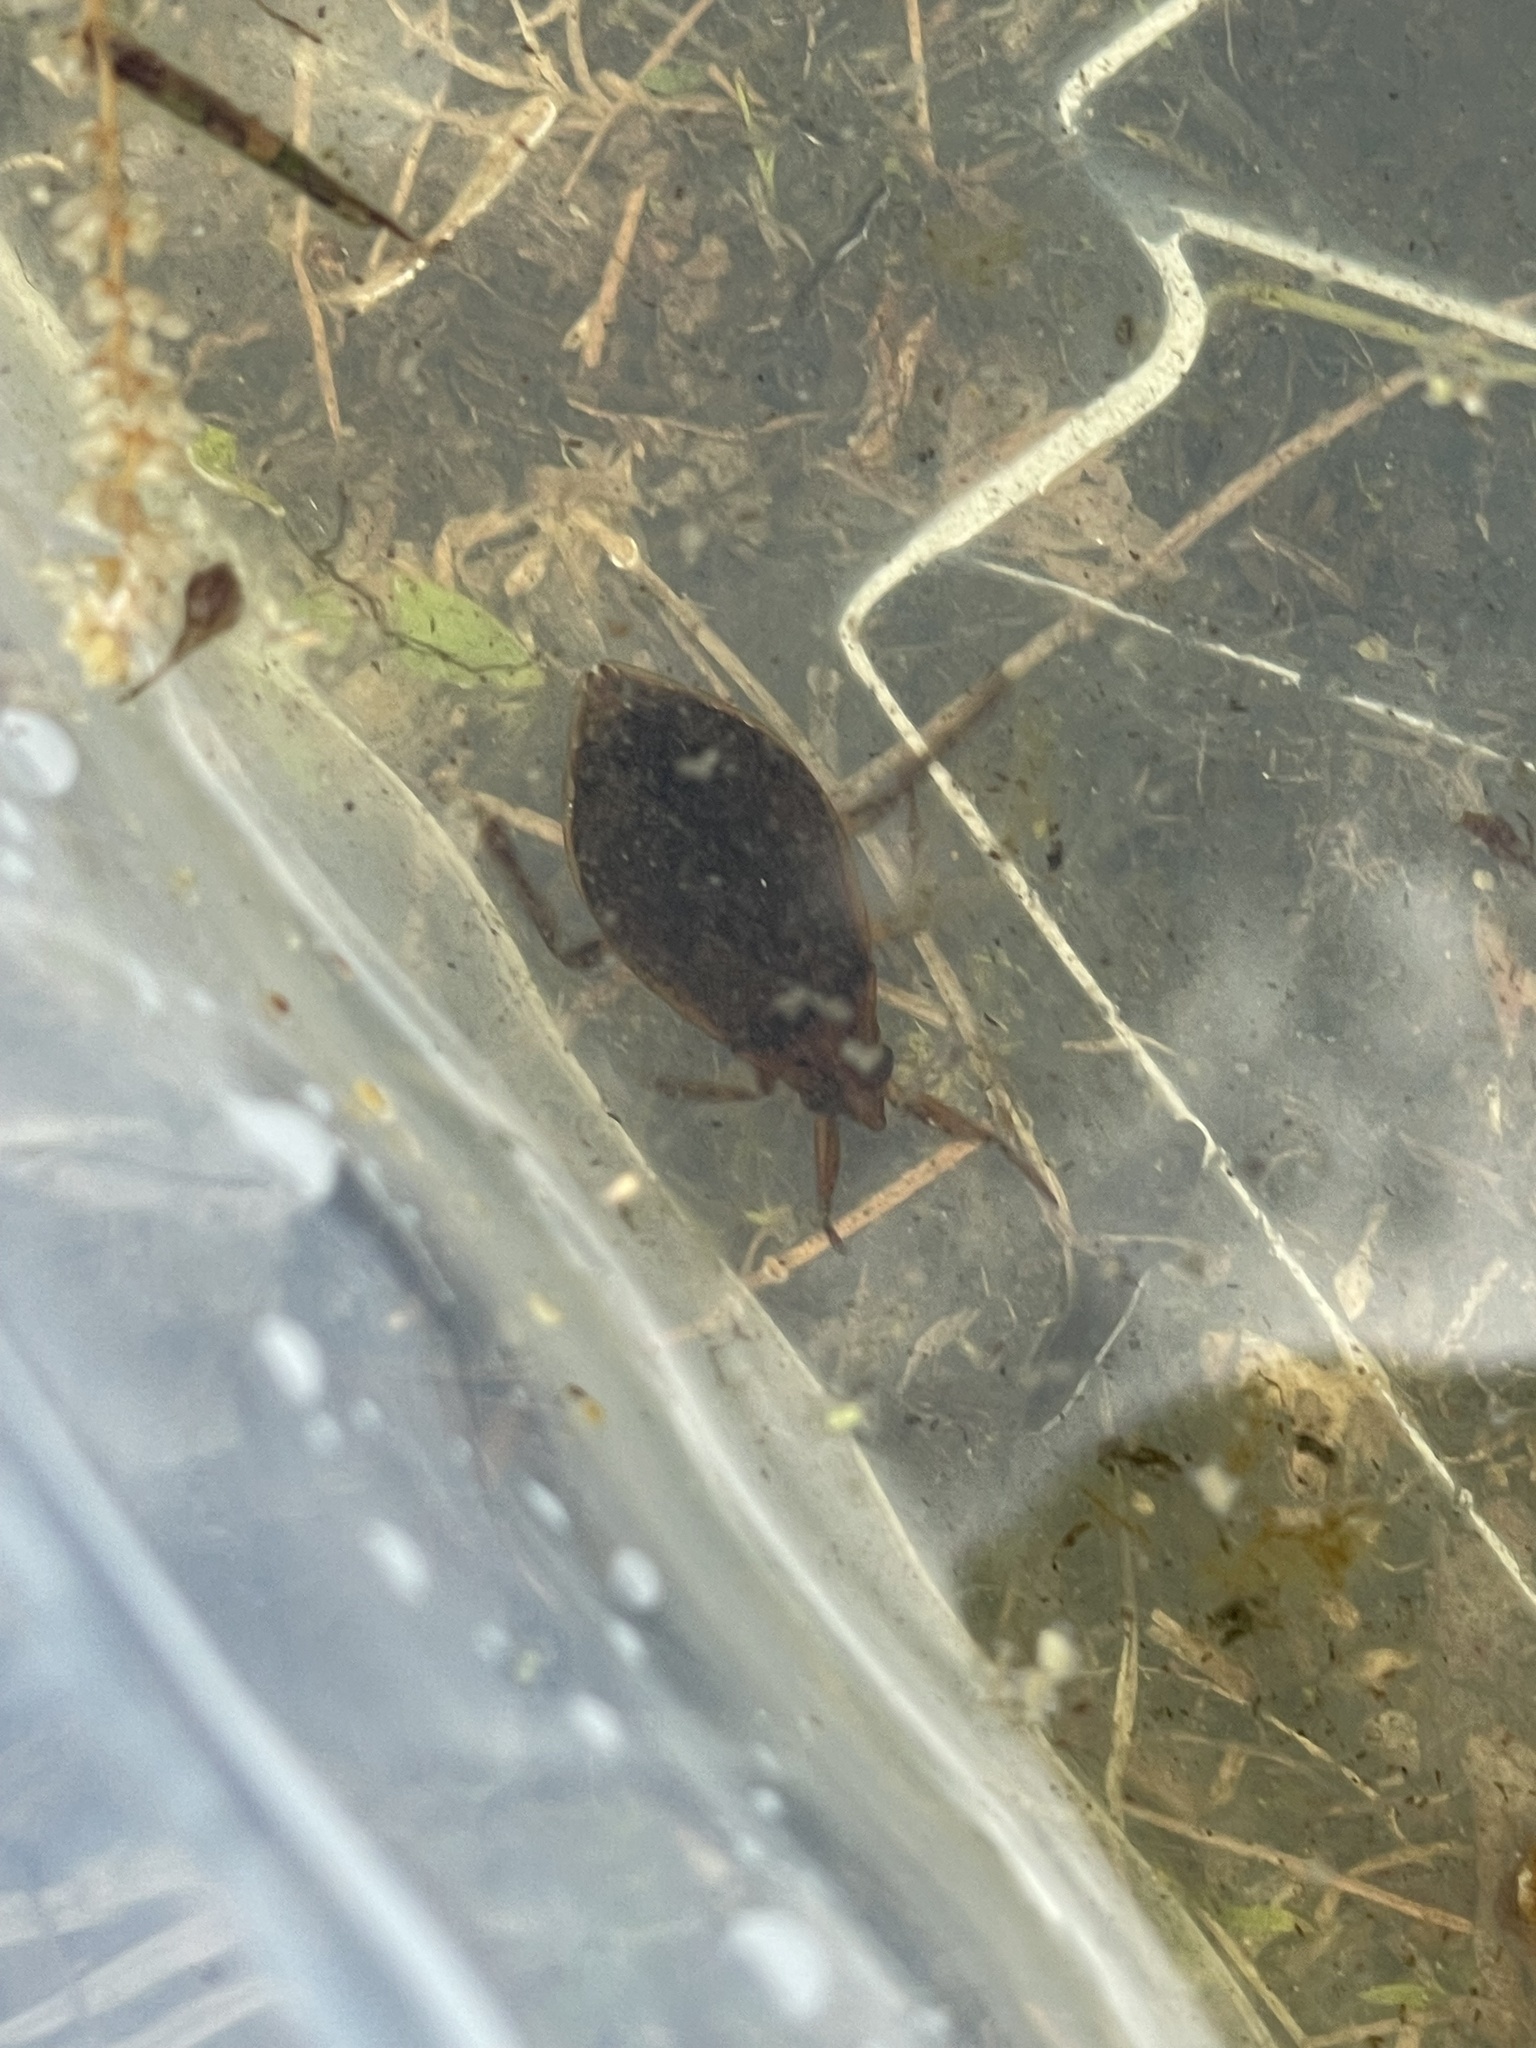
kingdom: Animalia
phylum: Arthropoda
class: Insecta
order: Hemiptera
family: Belostomatidae
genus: Belostoma
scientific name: Belostoma
